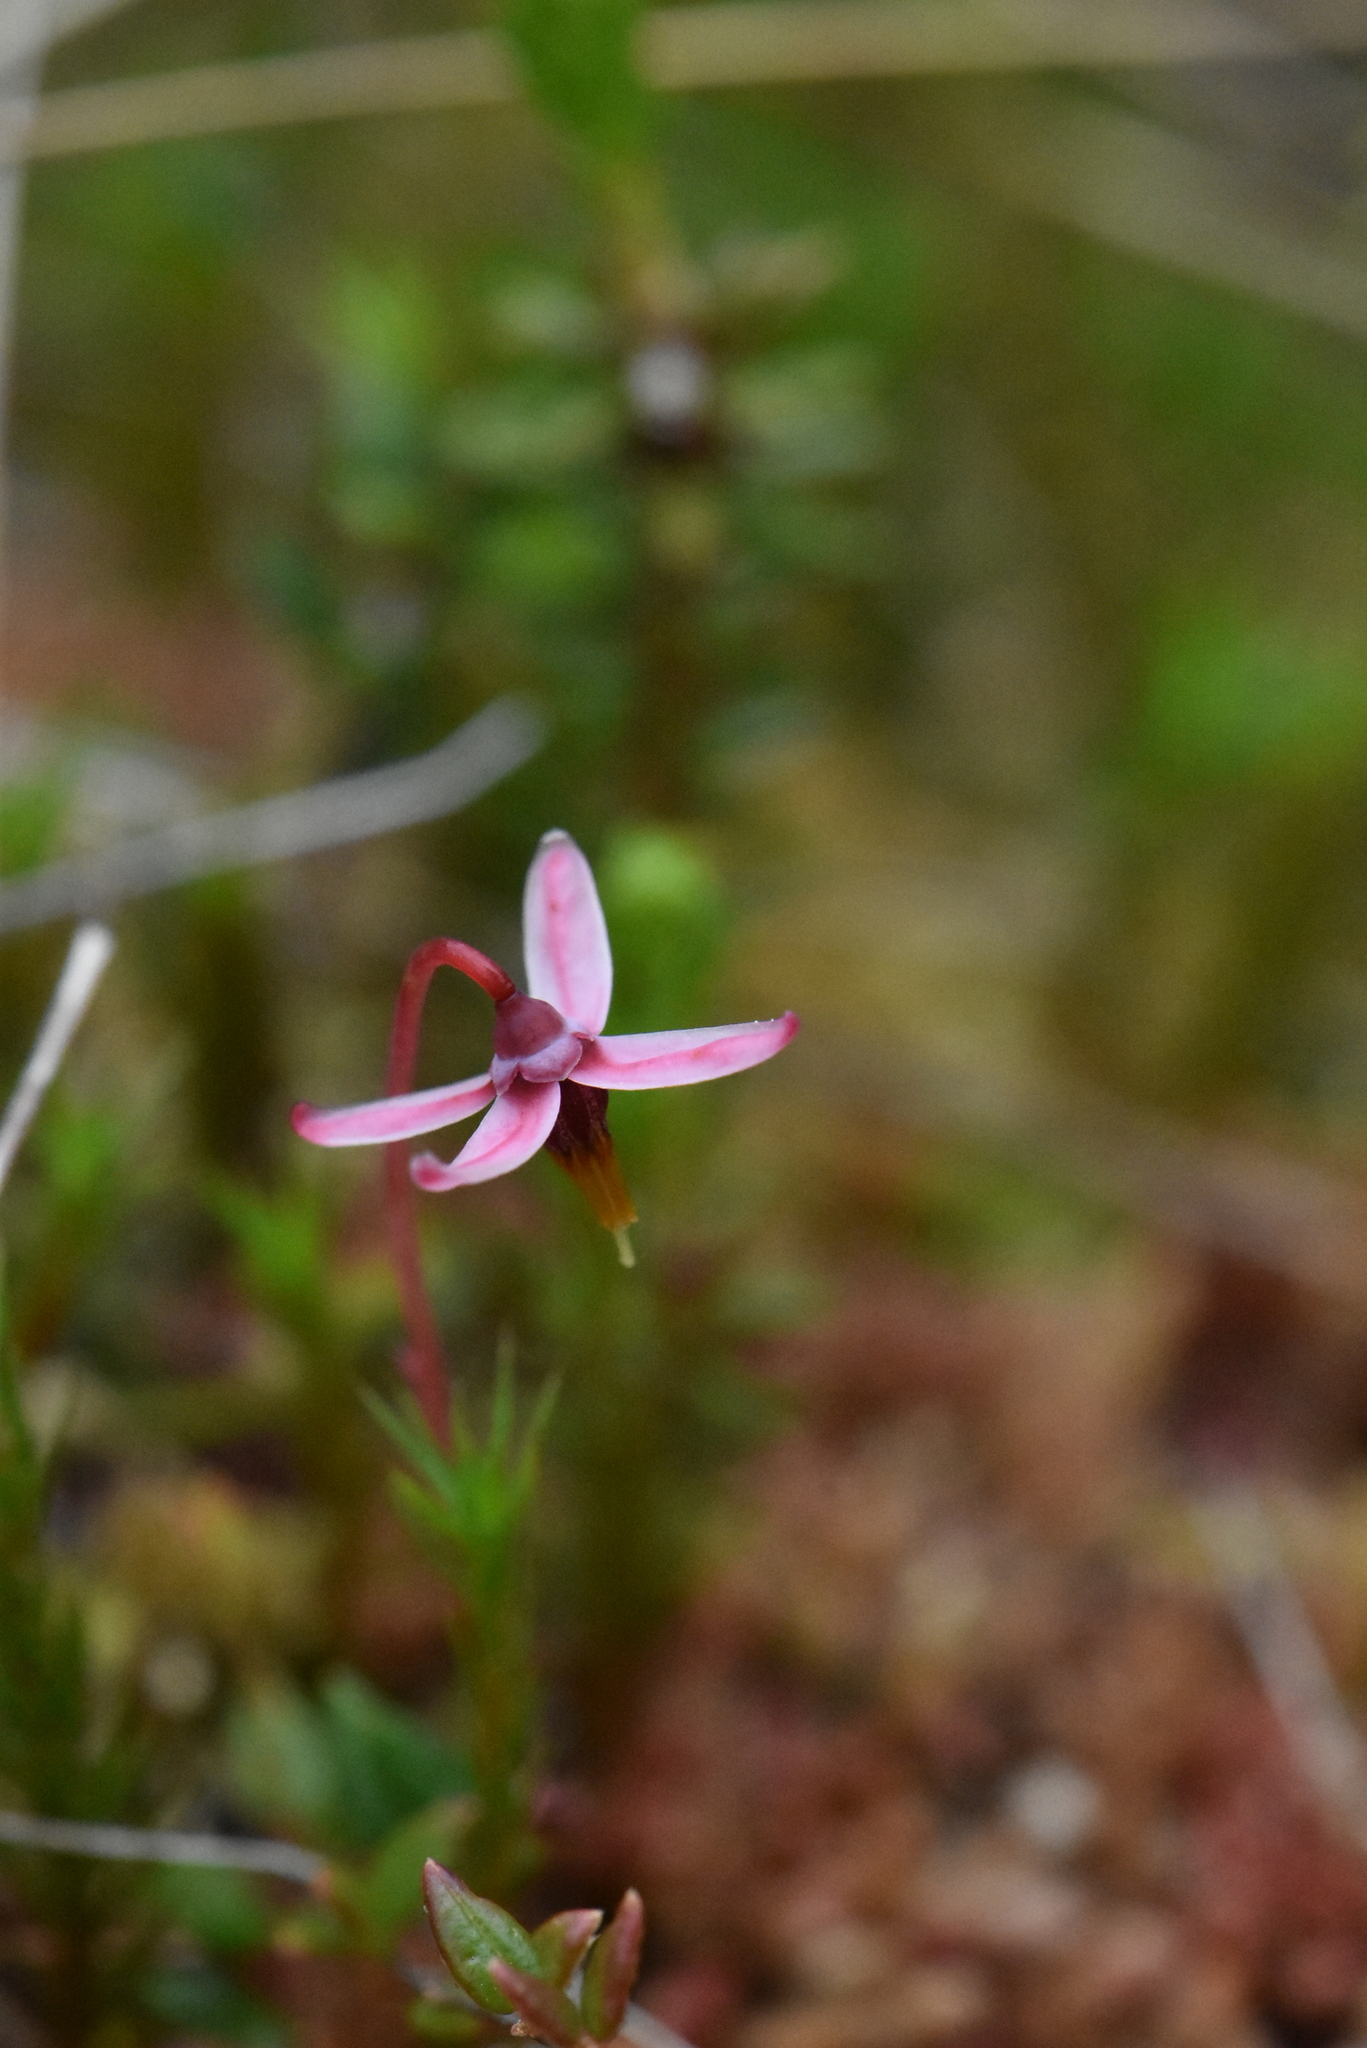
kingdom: Plantae
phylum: Tracheophyta
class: Magnoliopsida
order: Ericales
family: Ericaceae
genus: Vaccinium
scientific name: Vaccinium oxycoccos
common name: Cranberry
